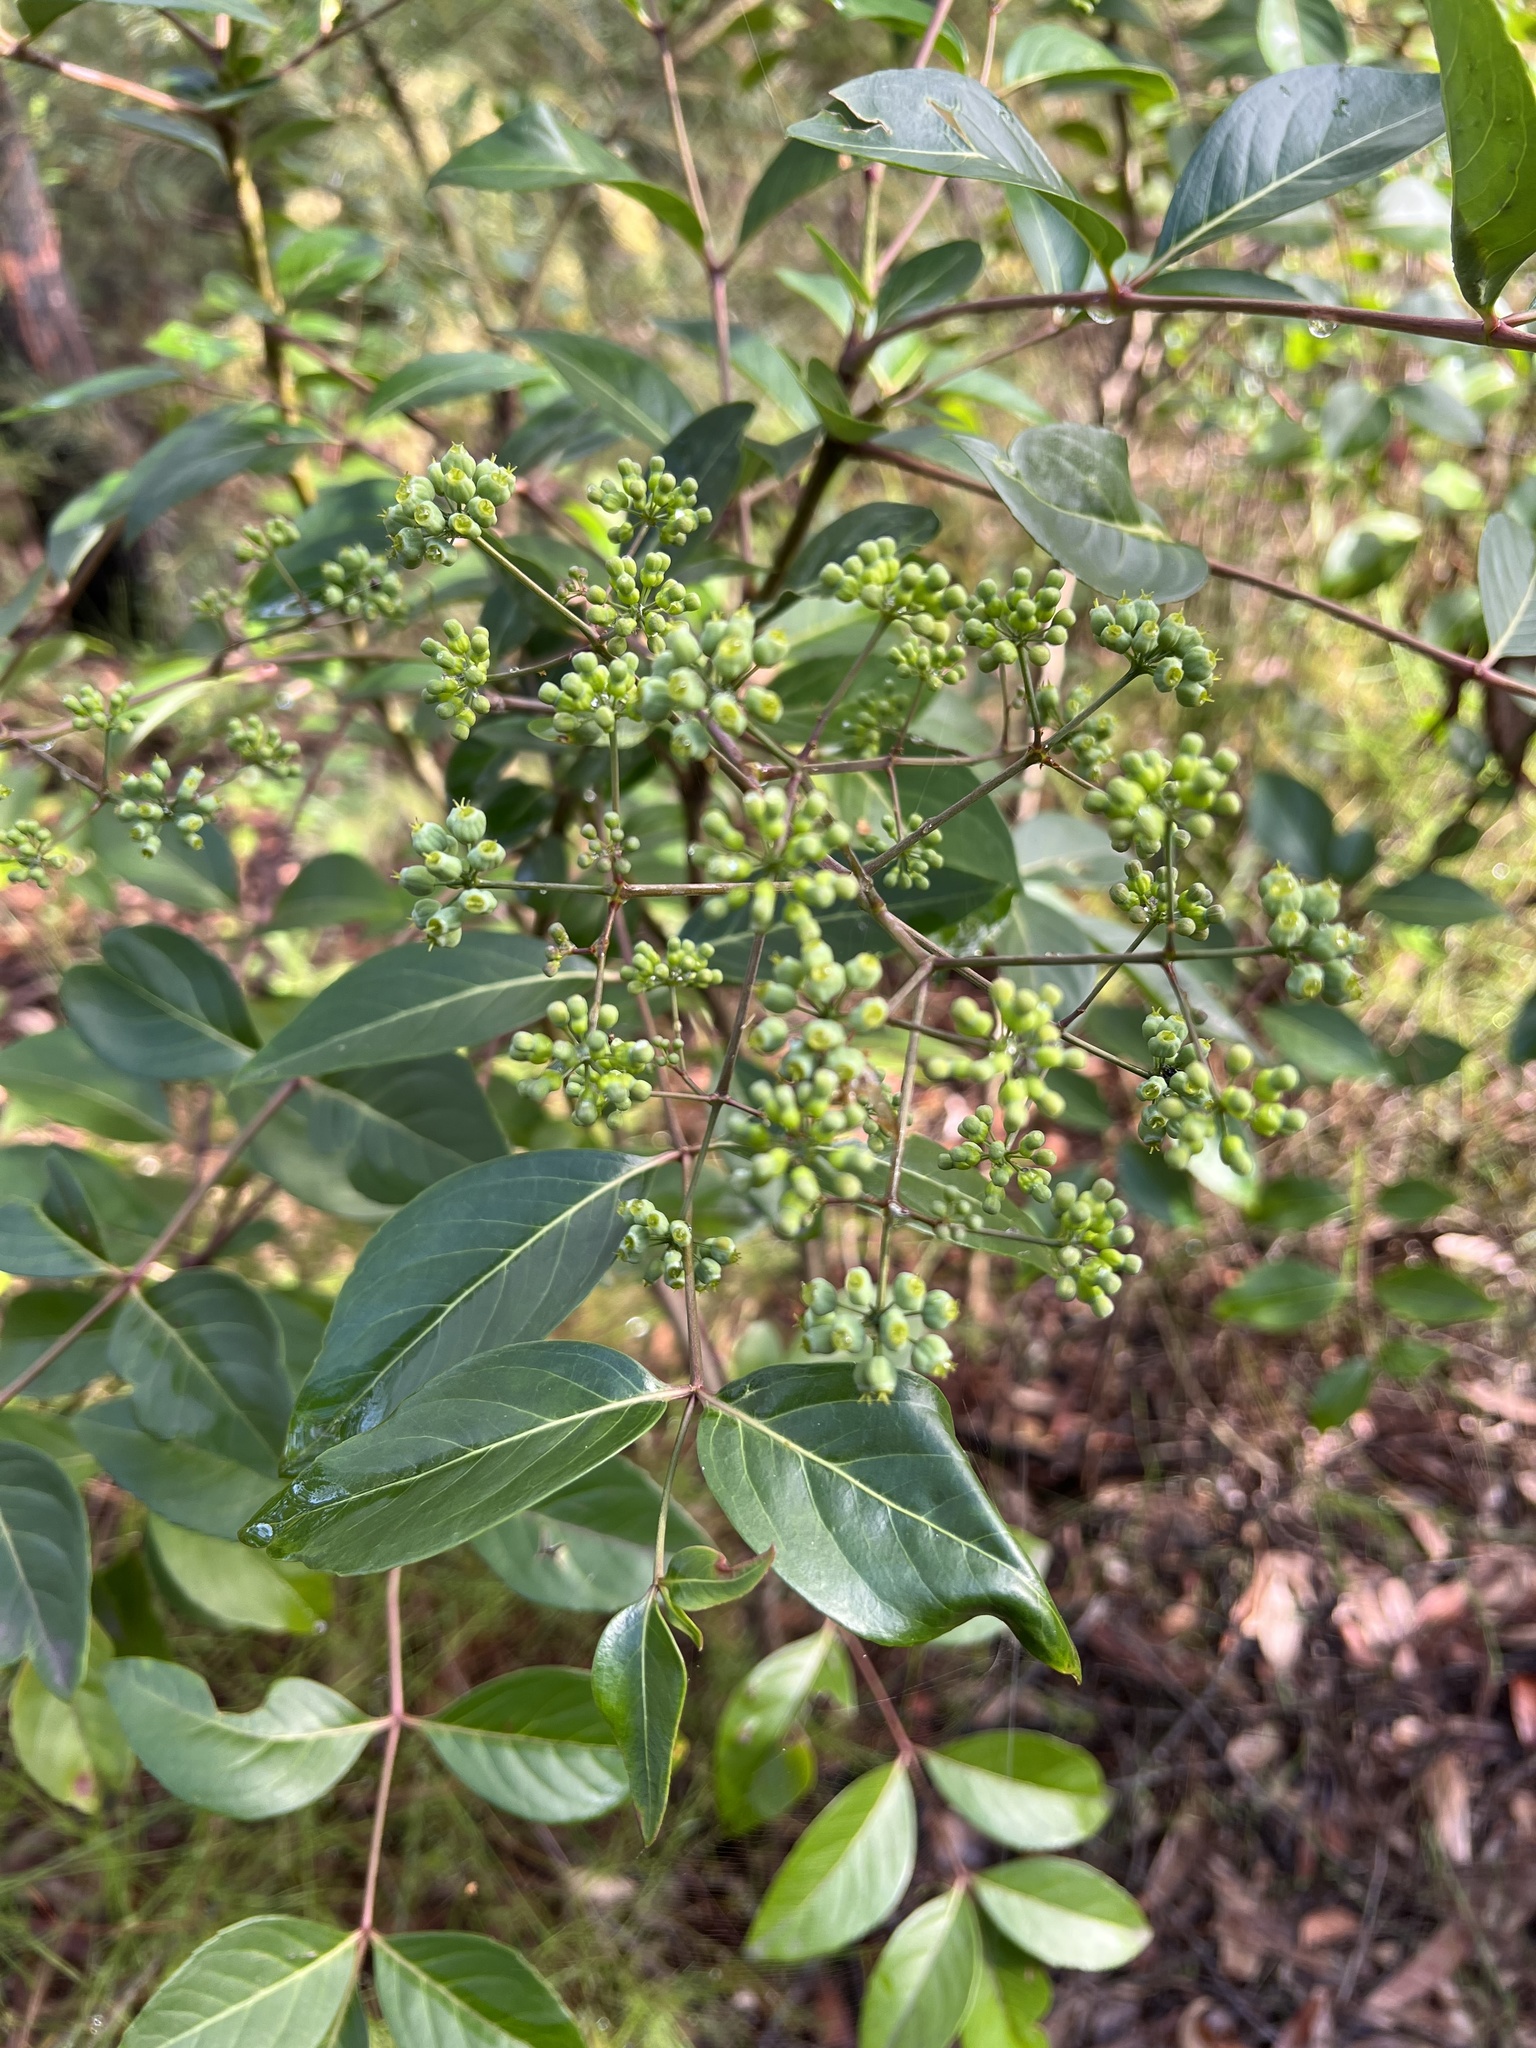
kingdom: Plantae
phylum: Tracheophyta
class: Magnoliopsida
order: Apiales
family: Araliaceae
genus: Polyscias
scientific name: Polyscias sambucifolia
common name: Elderberry-ash
